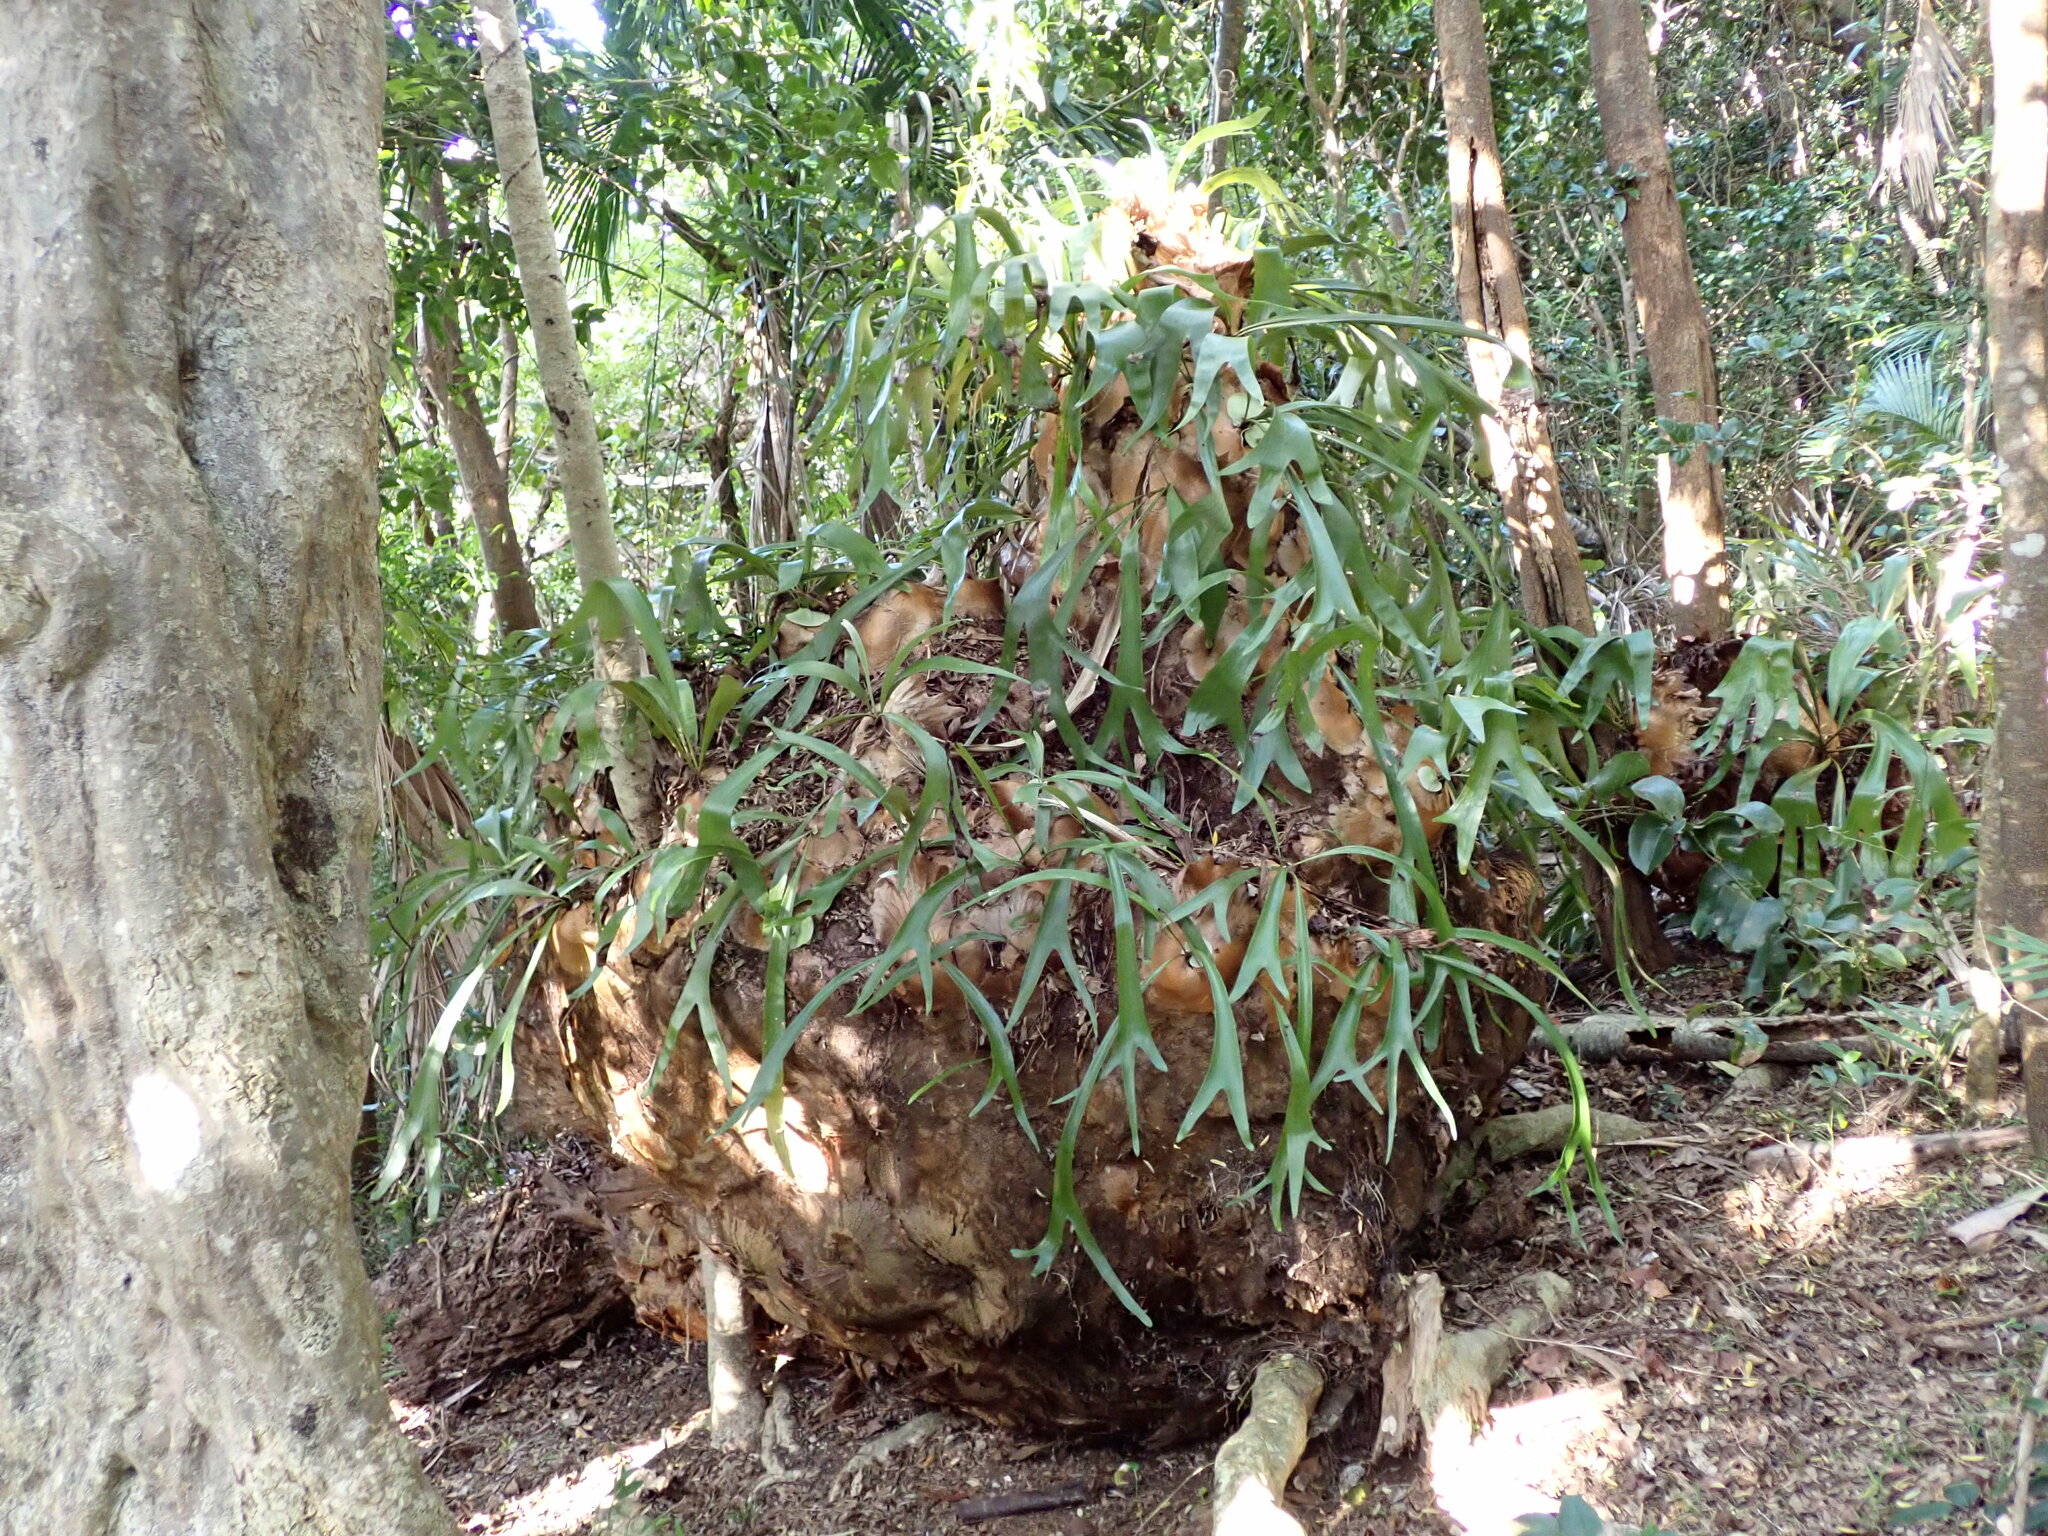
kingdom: Plantae
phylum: Tracheophyta
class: Polypodiopsida
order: Polypodiales
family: Polypodiaceae
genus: Platycerium
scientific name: Platycerium bifurcatum
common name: Elkhorn fern
